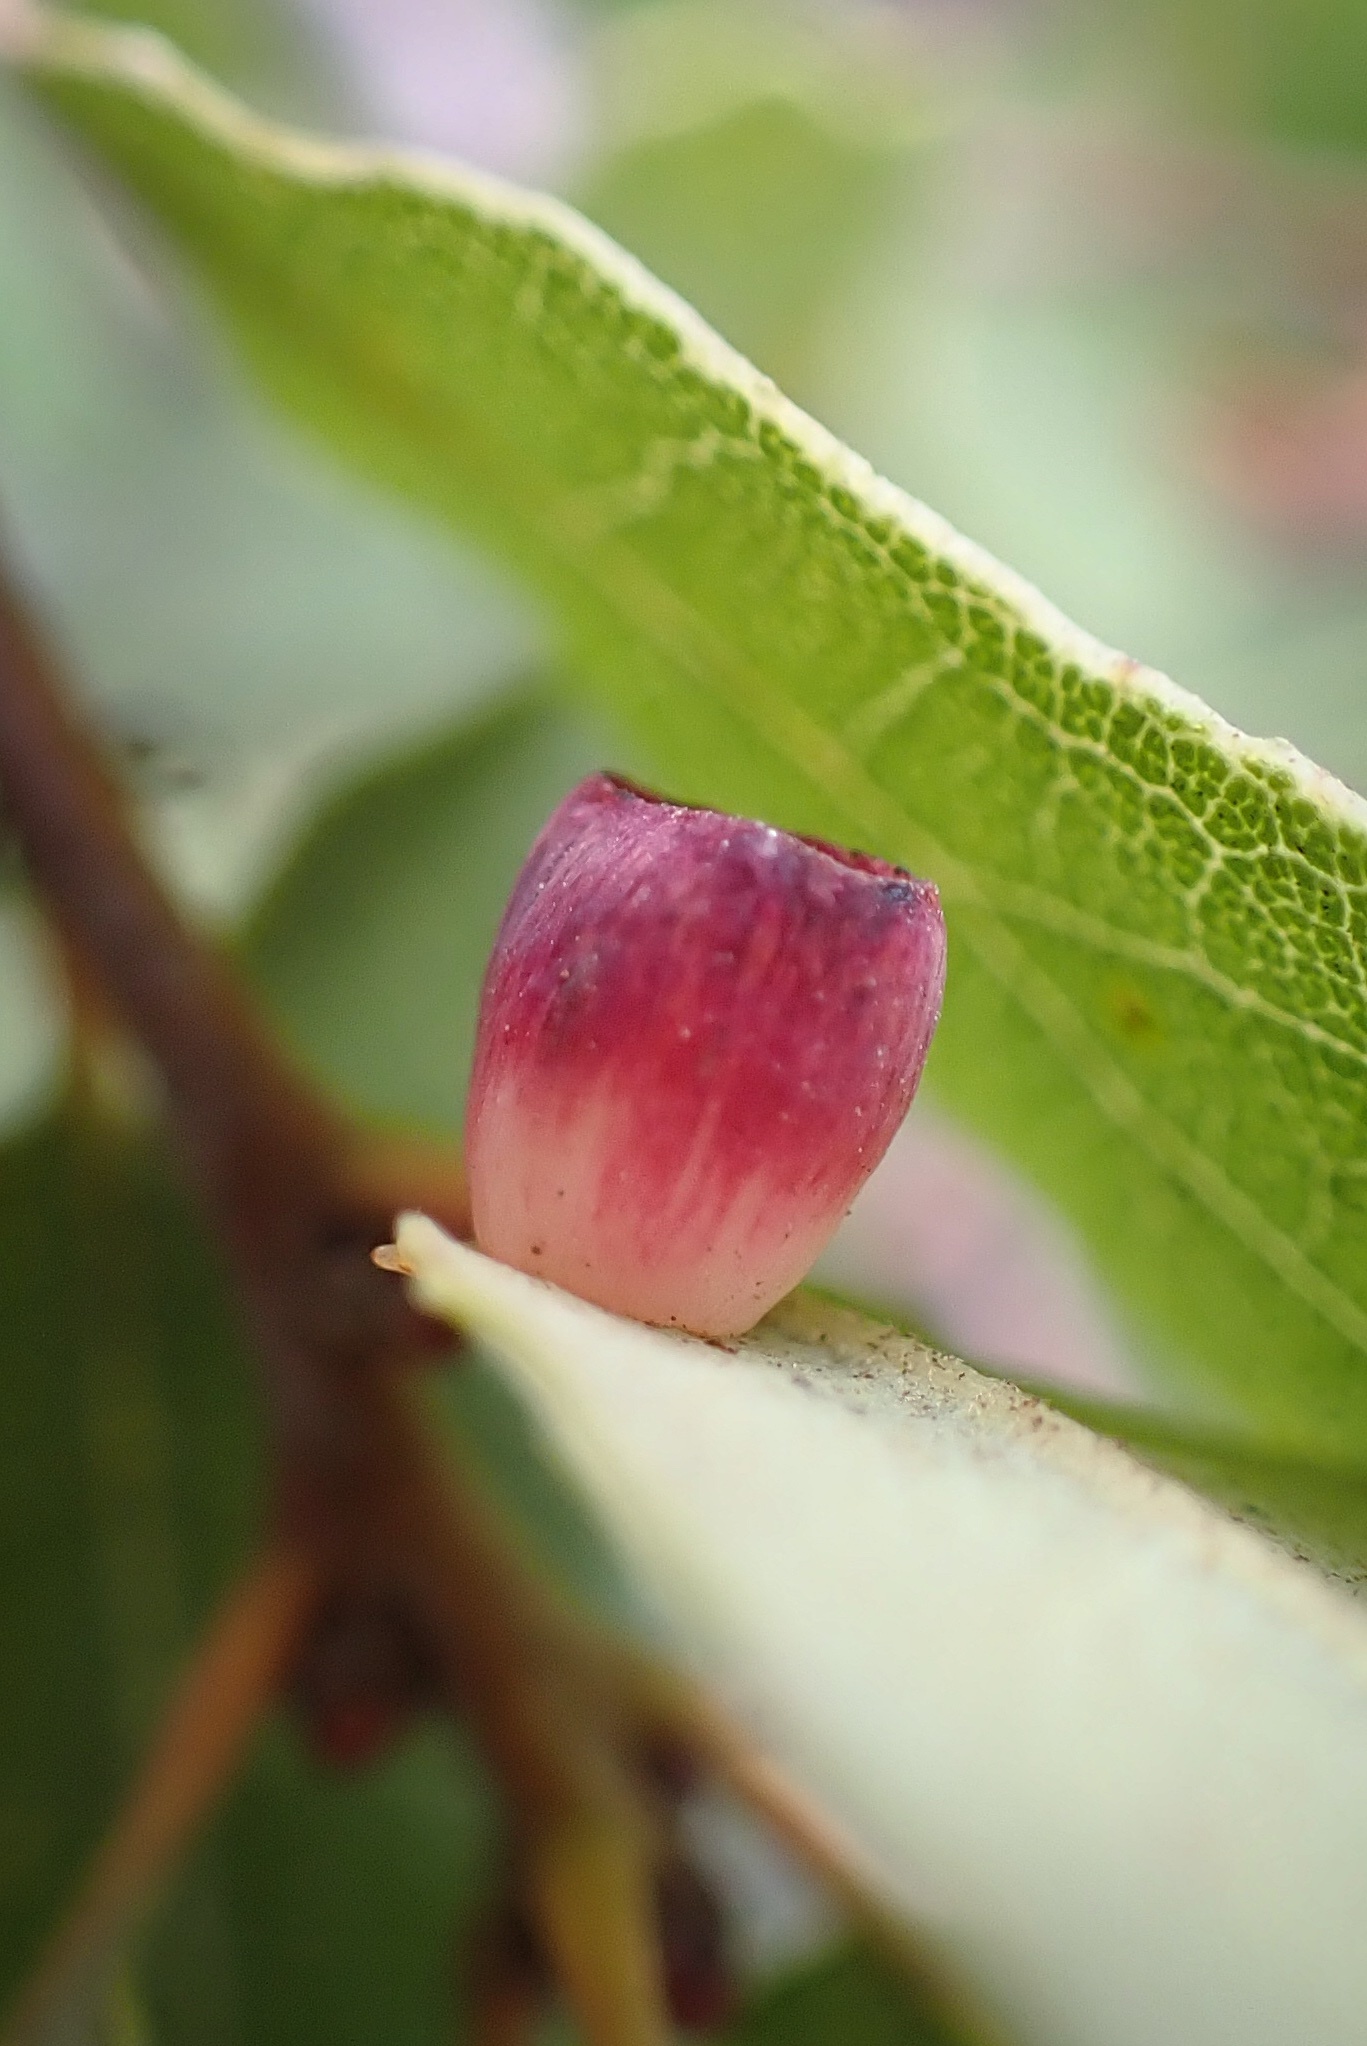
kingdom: Animalia
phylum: Arthropoda
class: Insecta
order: Hymenoptera
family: Cynipidae
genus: Andricus
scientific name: Andricus
